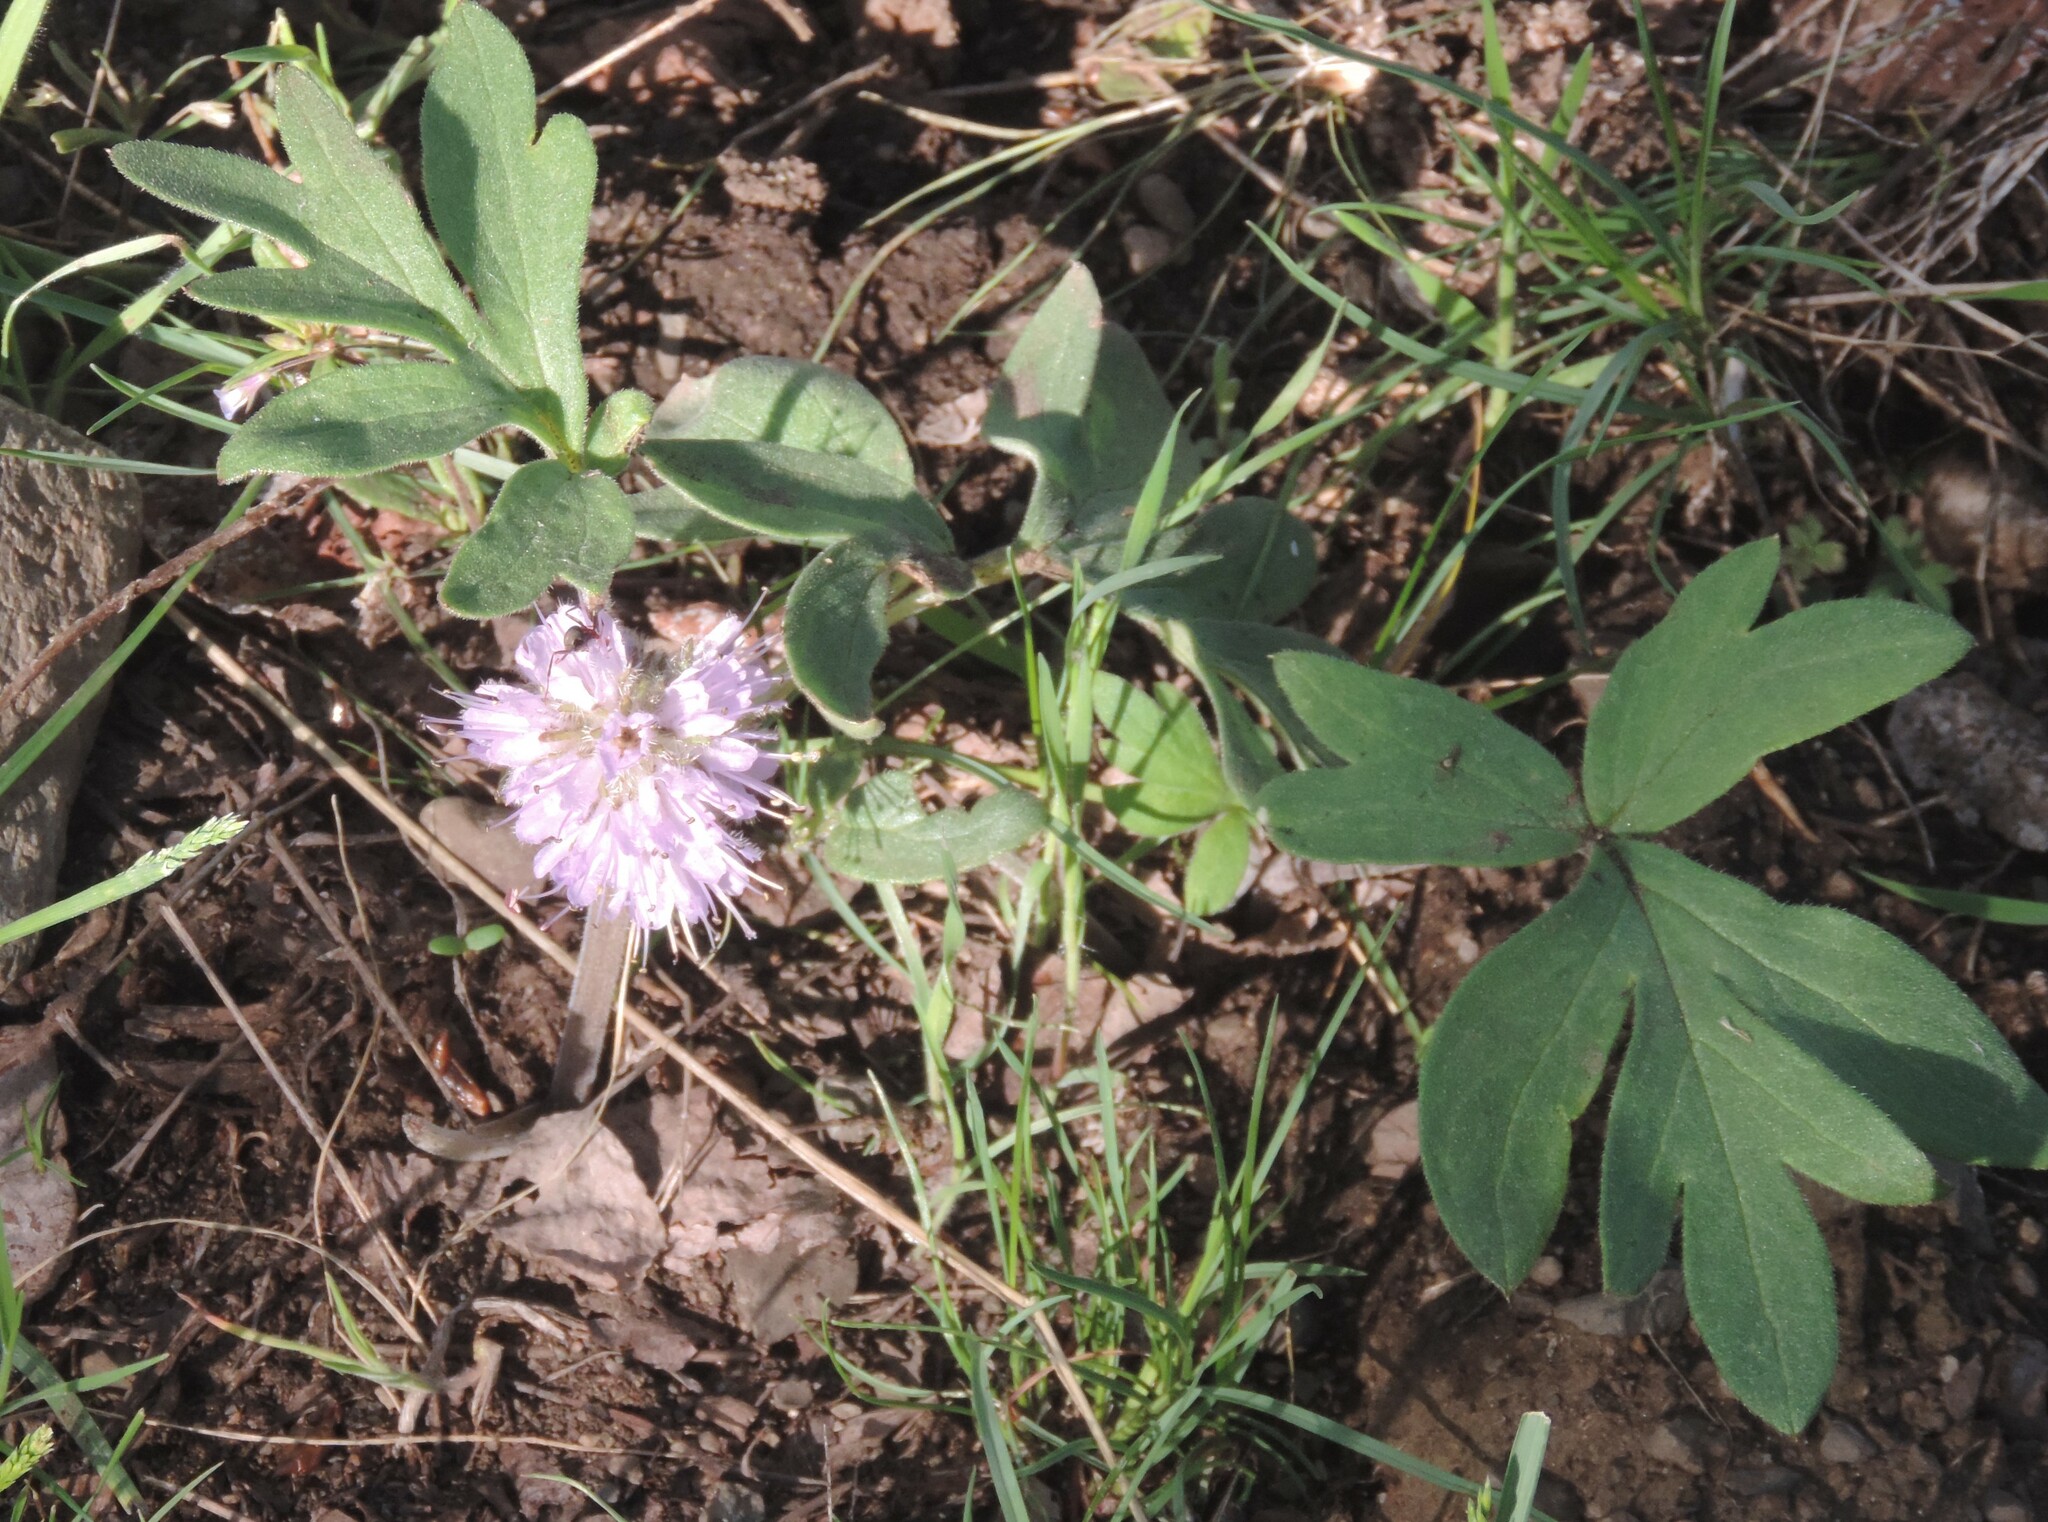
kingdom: Plantae
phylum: Tracheophyta
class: Magnoliopsida
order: Boraginales
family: Hydrophyllaceae
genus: Hydrophyllum
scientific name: Hydrophyllum capitatum
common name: Woollen-breeches
